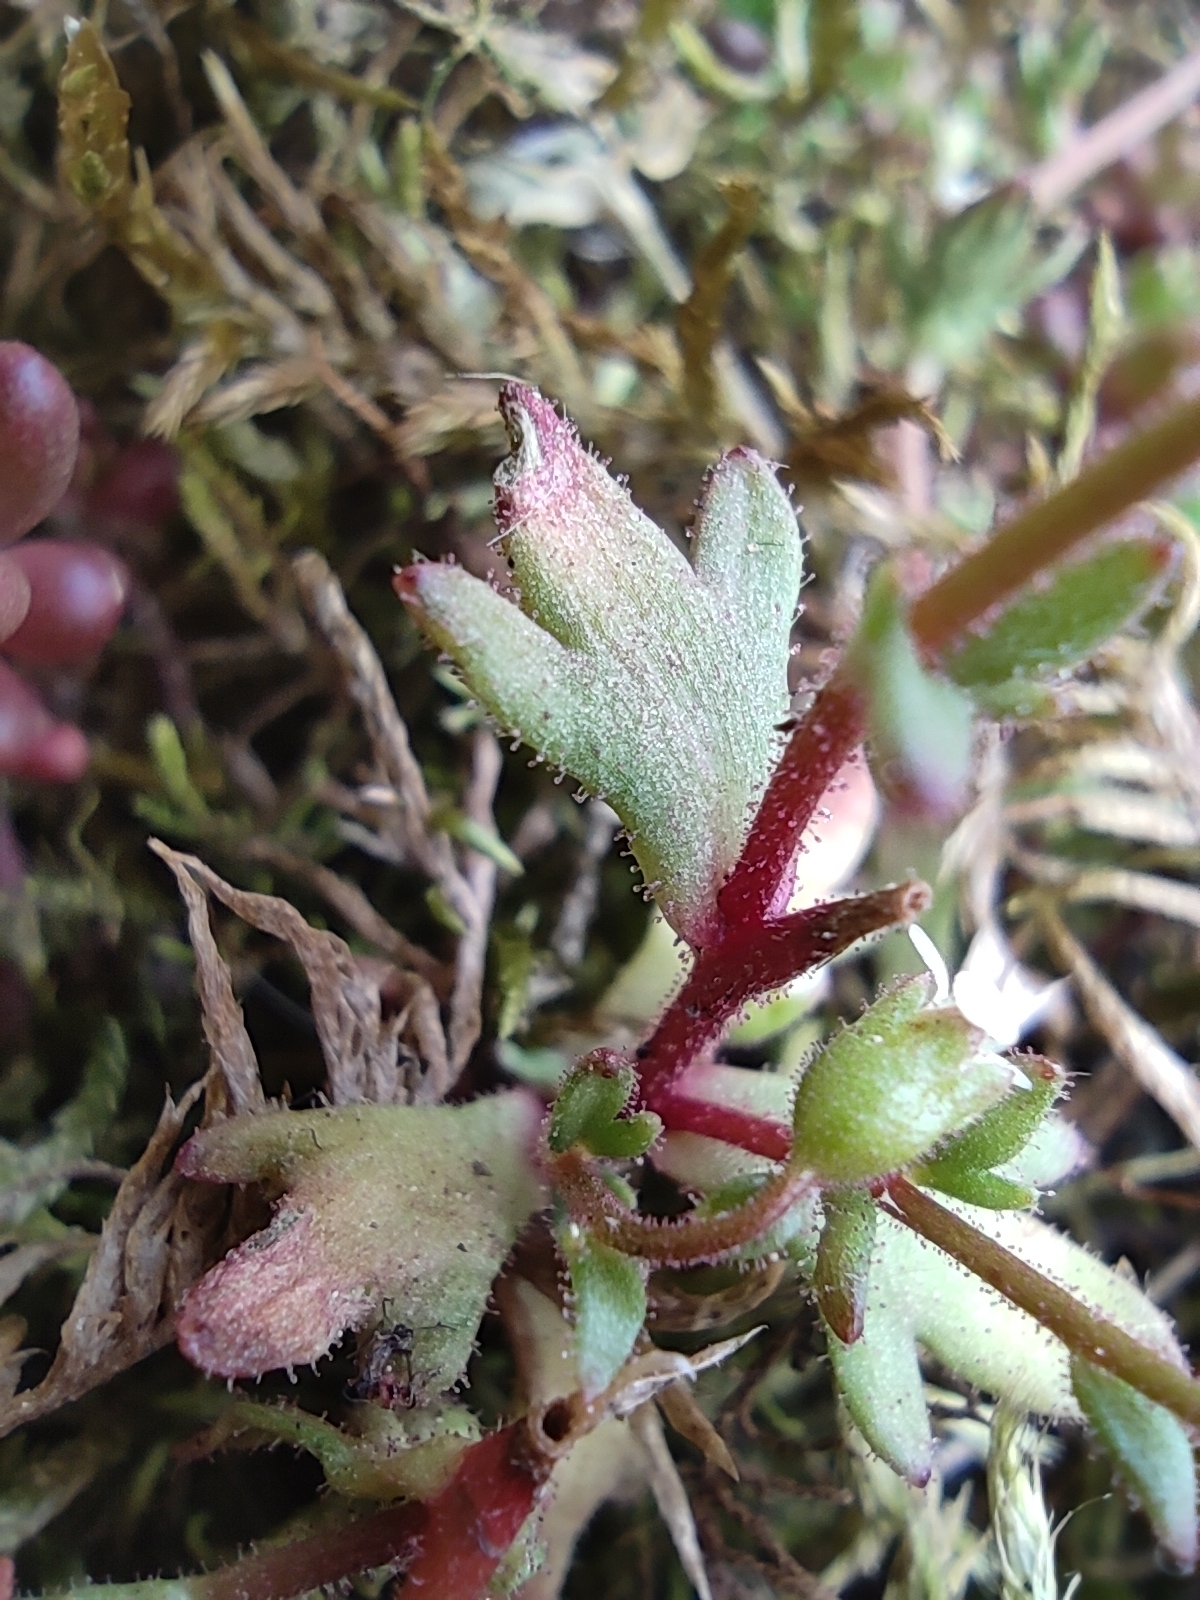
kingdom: Plantae
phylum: Tracheophyta
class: Magnoliopsida
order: Saxifragales
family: Saxifragaceae
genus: Saxifraga
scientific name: Saxifraga tridactylites
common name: Rue-leaved saxifrage
